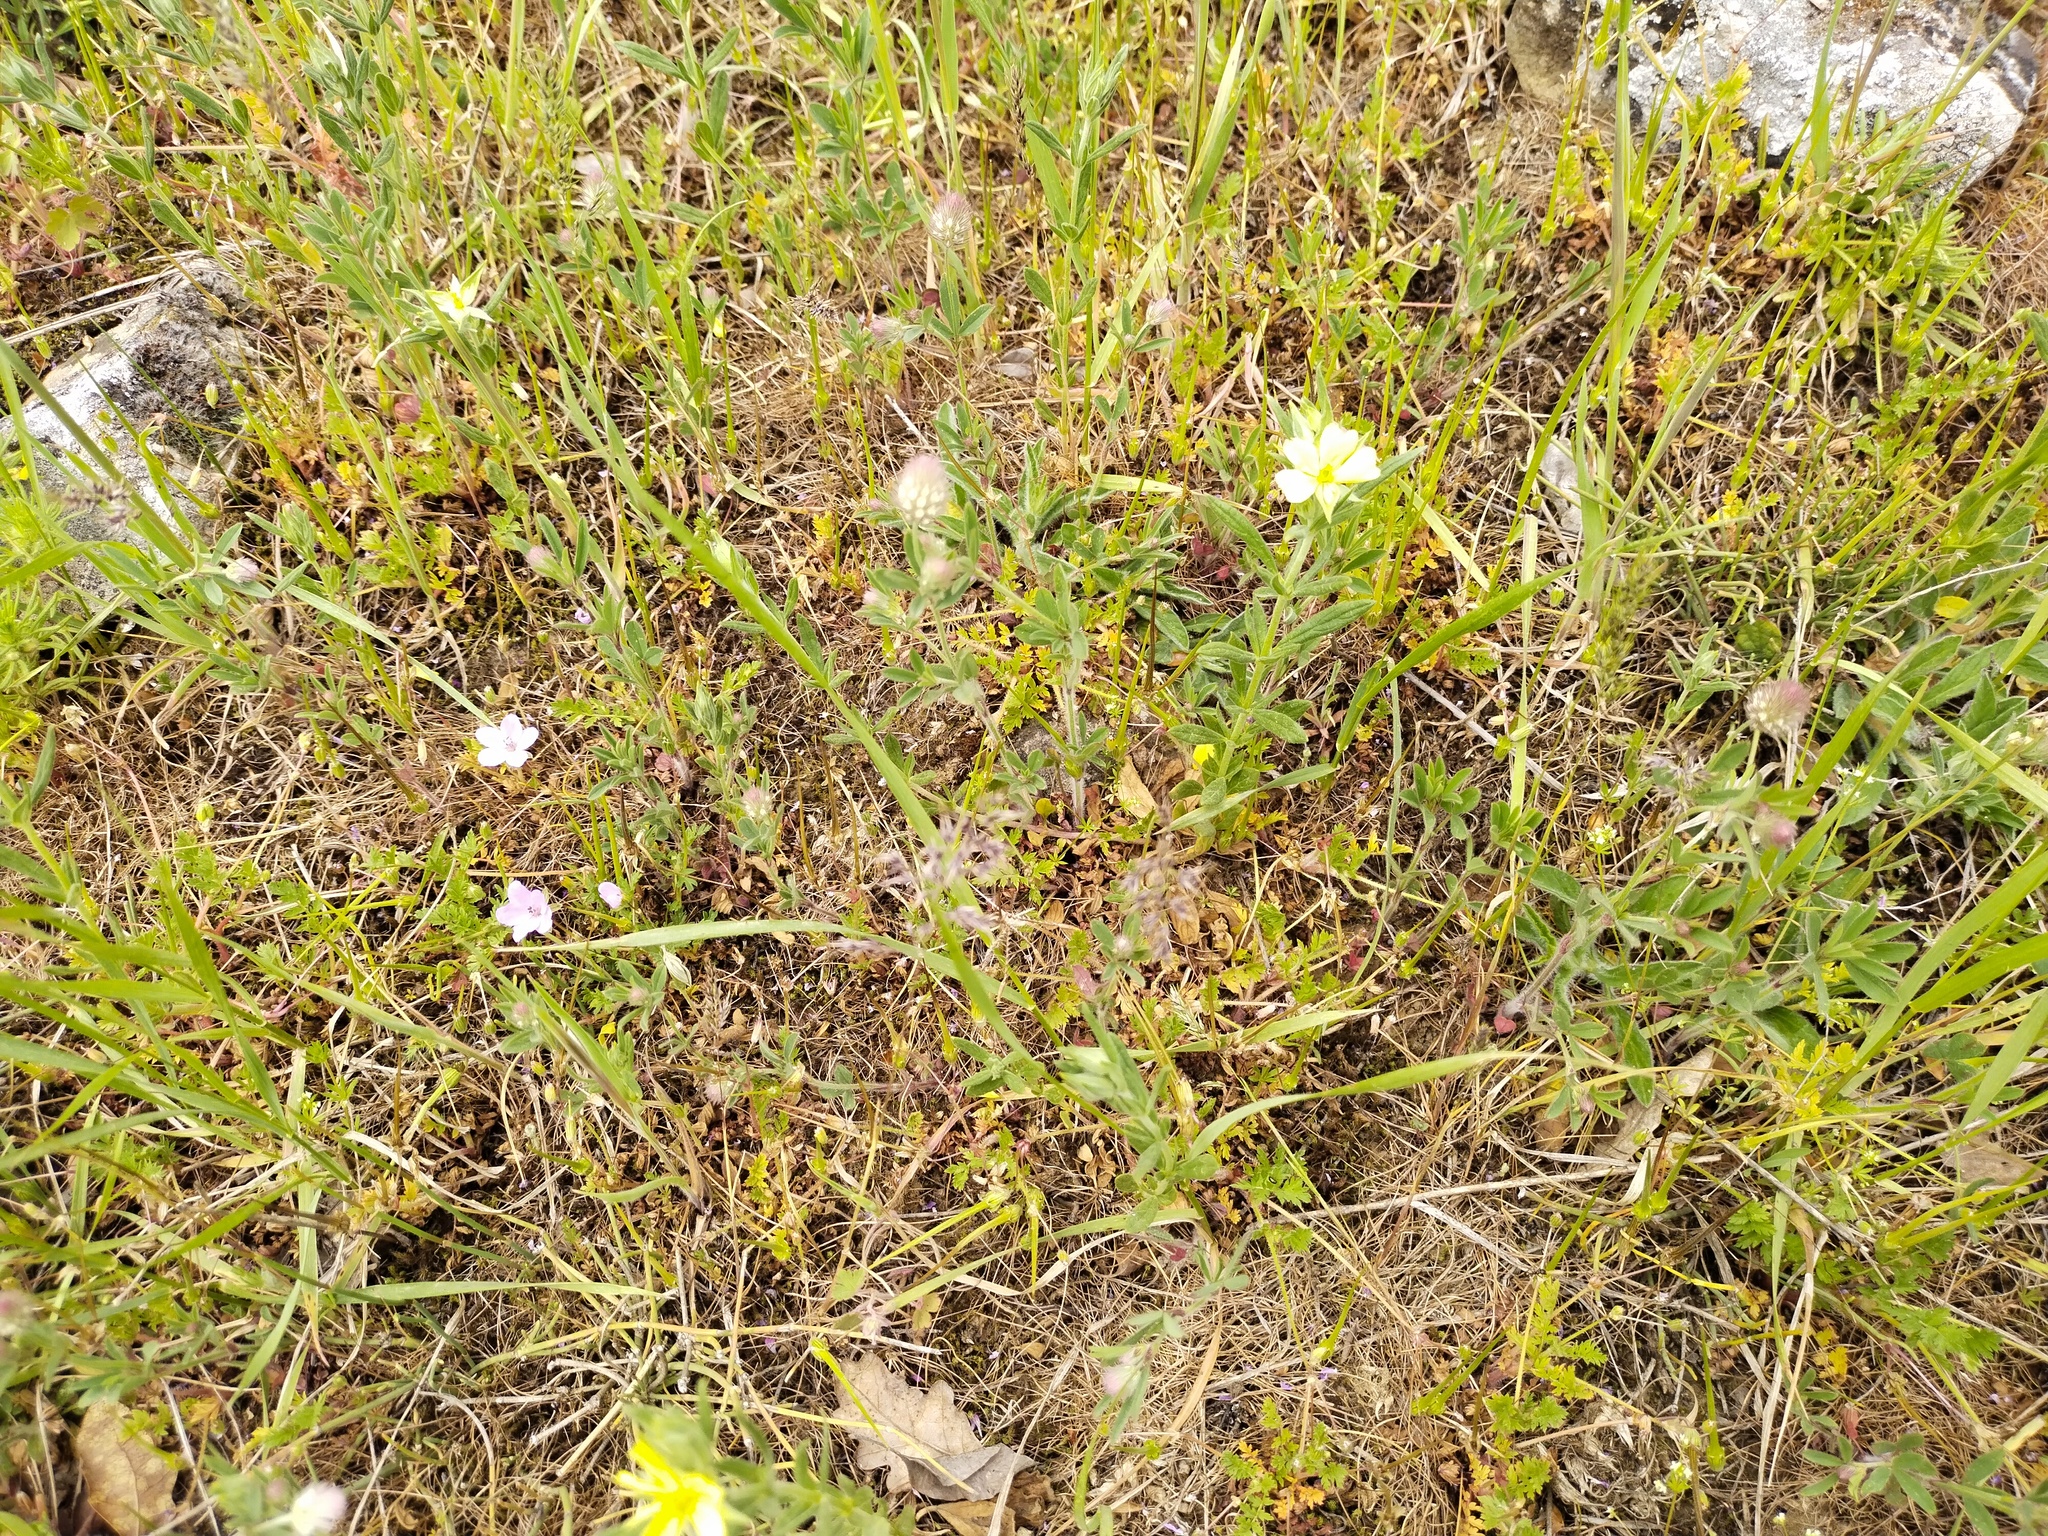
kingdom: Plantae
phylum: Tracheophyta
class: Magnoliopsida
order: Malvales
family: Cistaceae
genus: Helianthemum
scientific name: Helianthemum salicifolium
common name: Willowleaf frostweed
